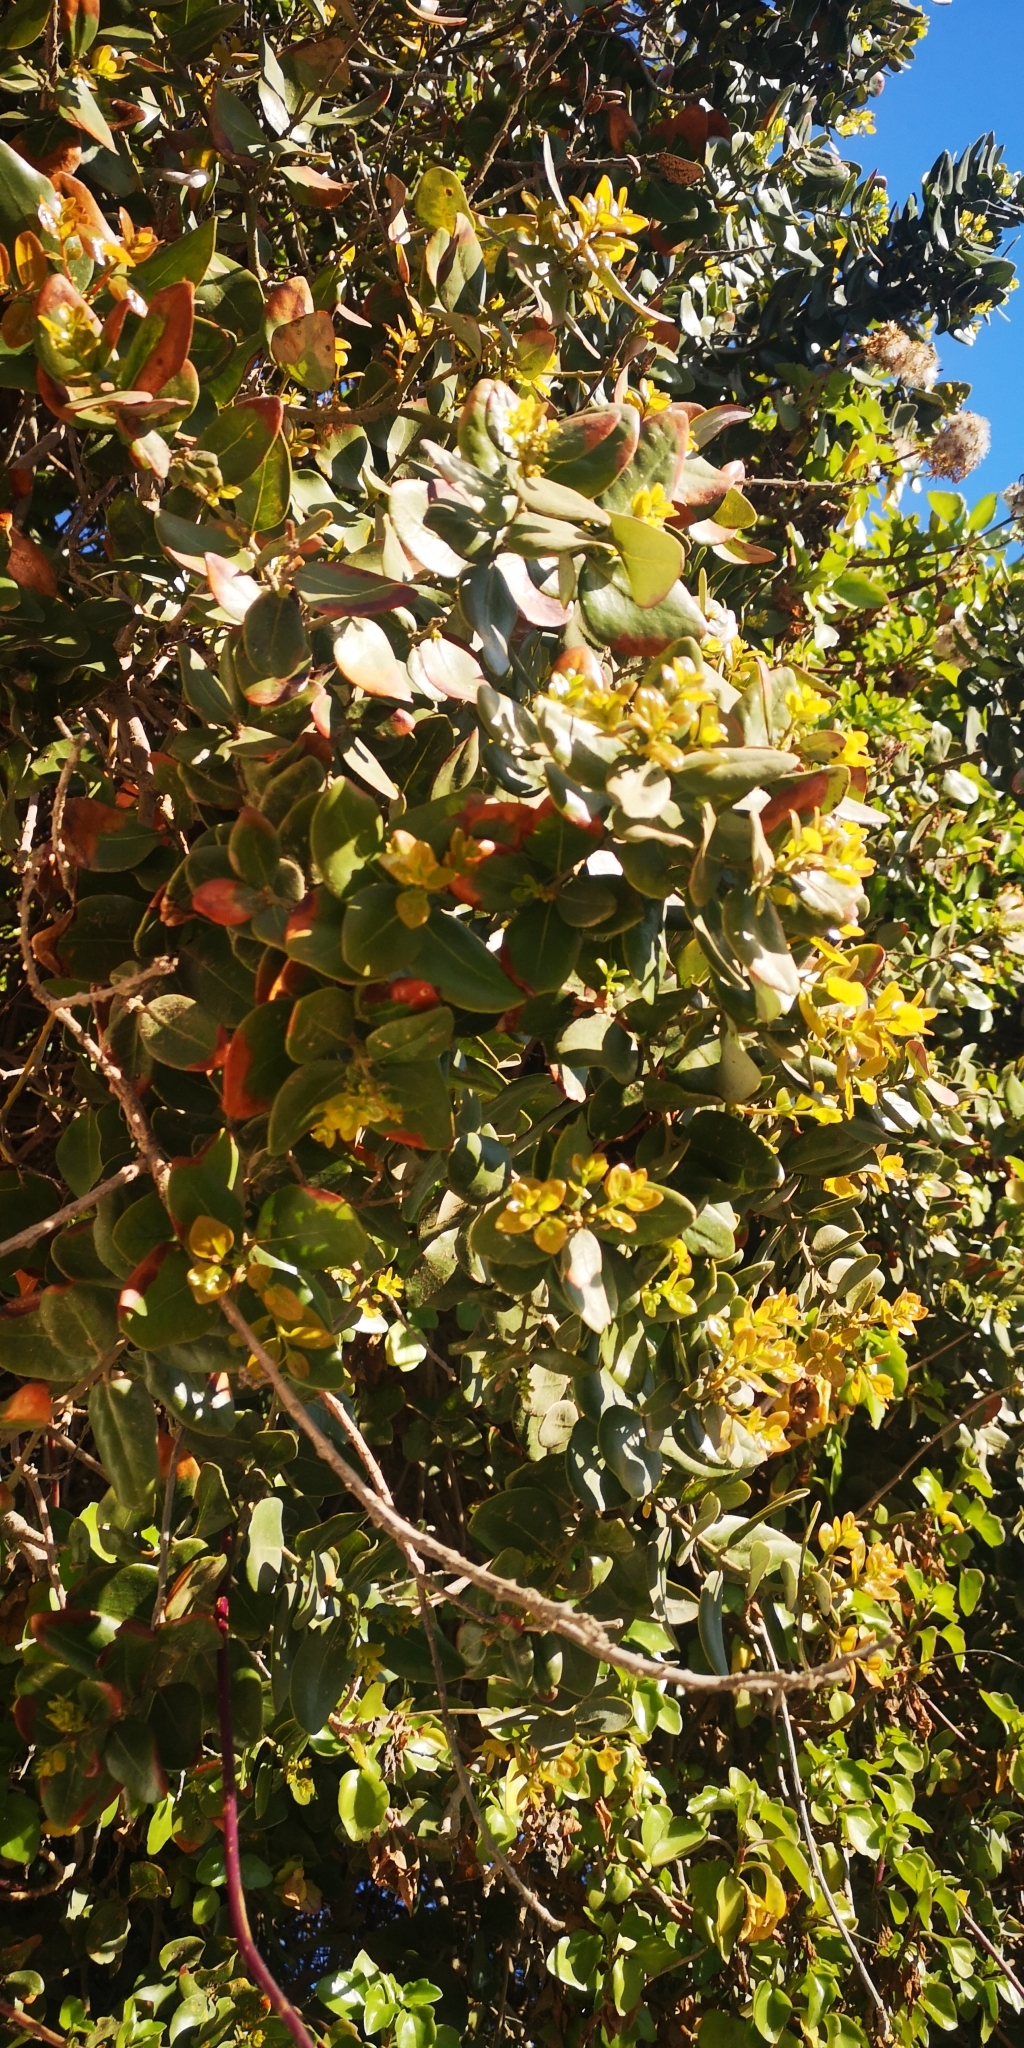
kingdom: Plantae
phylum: Tracheophyta
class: Magnoliopsida
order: Laurales
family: Lauraceae
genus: Cryptocarya
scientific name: Cryptocarya alba
